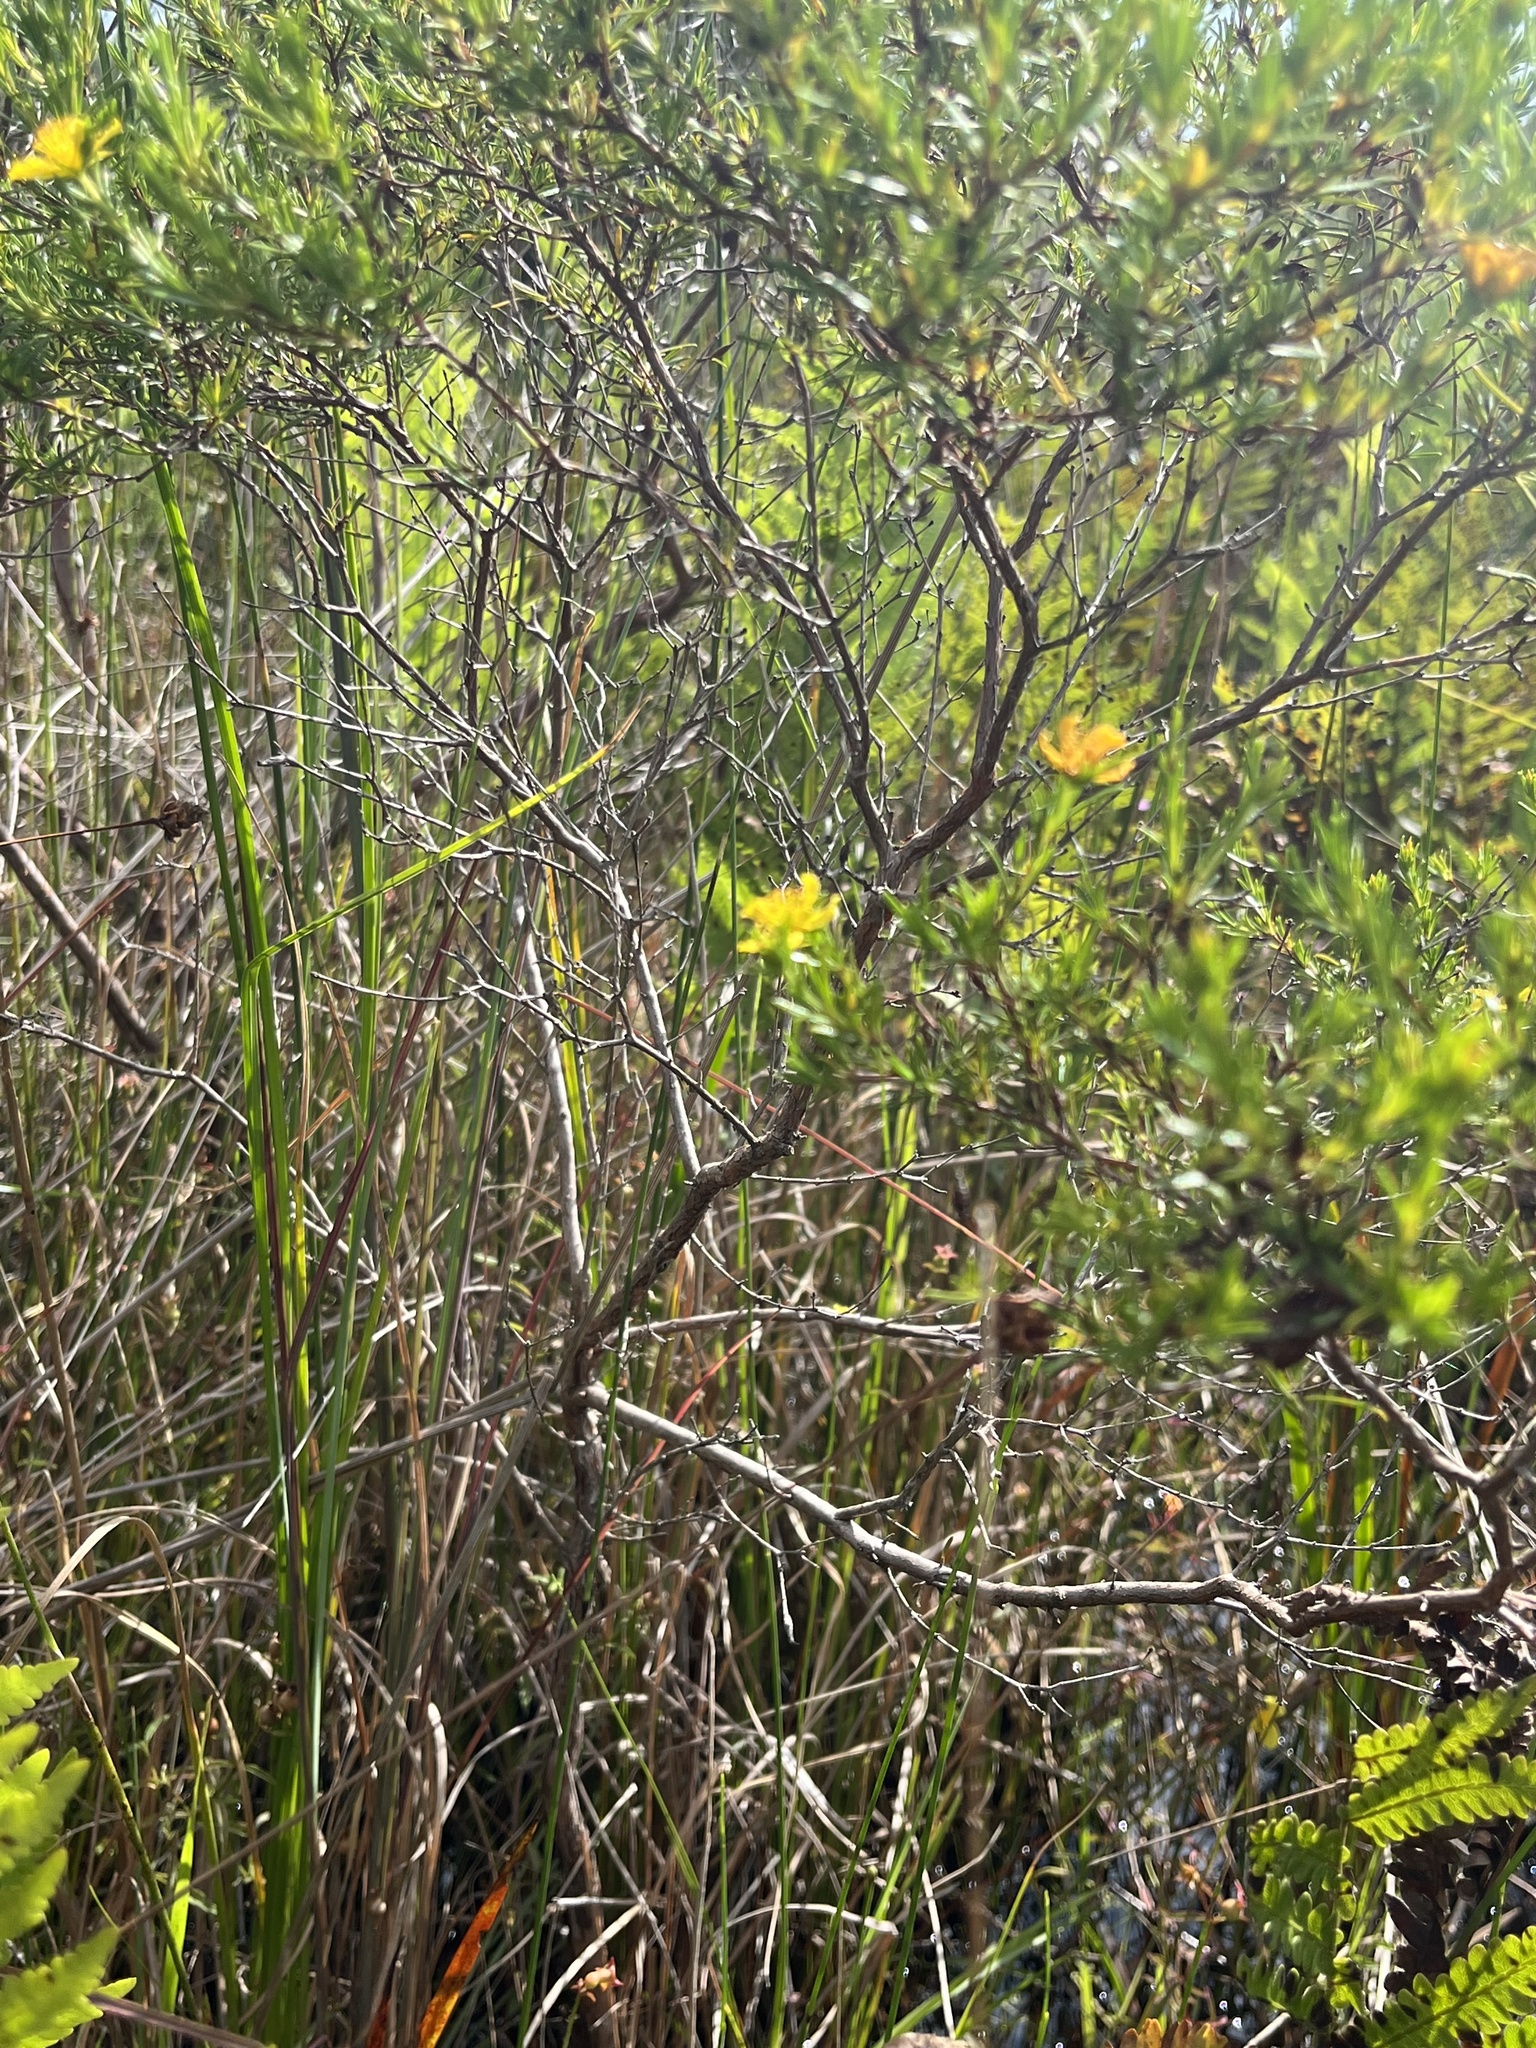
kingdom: Plantae
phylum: Tracheophyta
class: Magnoliopsida
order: Malpighiales
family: Hypericaceae
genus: Hypericum
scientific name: Hypericum fasciculatum
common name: Peelbark st. john's wort
